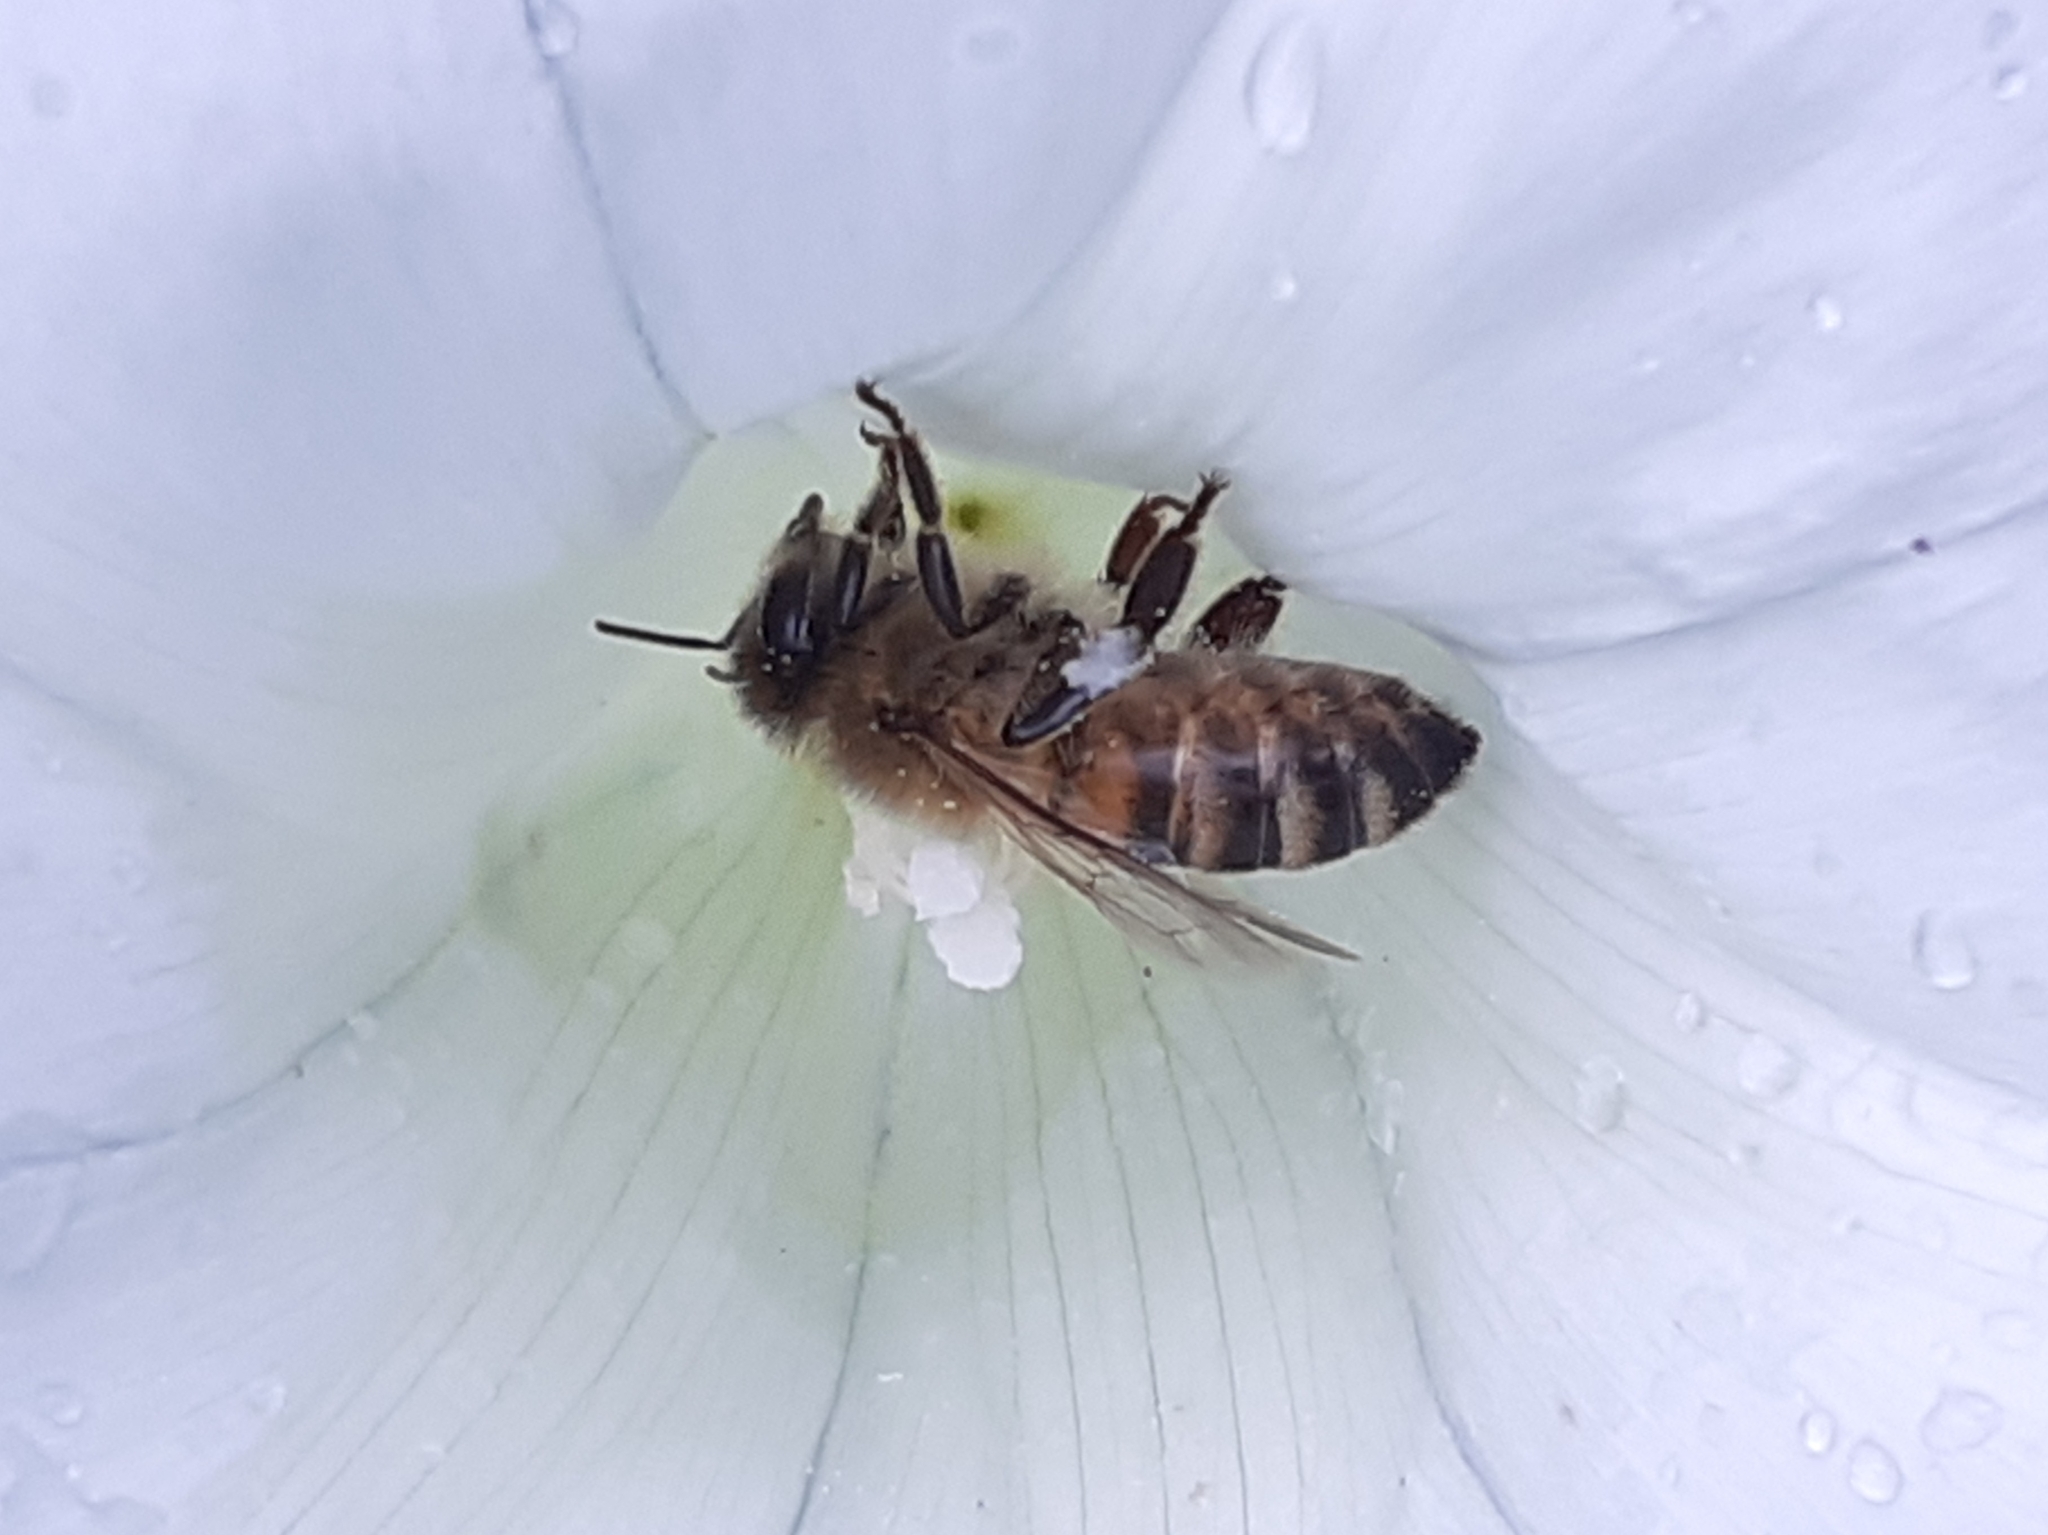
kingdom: Animalia
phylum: Arthropoda
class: Insecta
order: Hymenoptera
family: Apidae
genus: Apis
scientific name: Apis mellifera
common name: Honey bee
